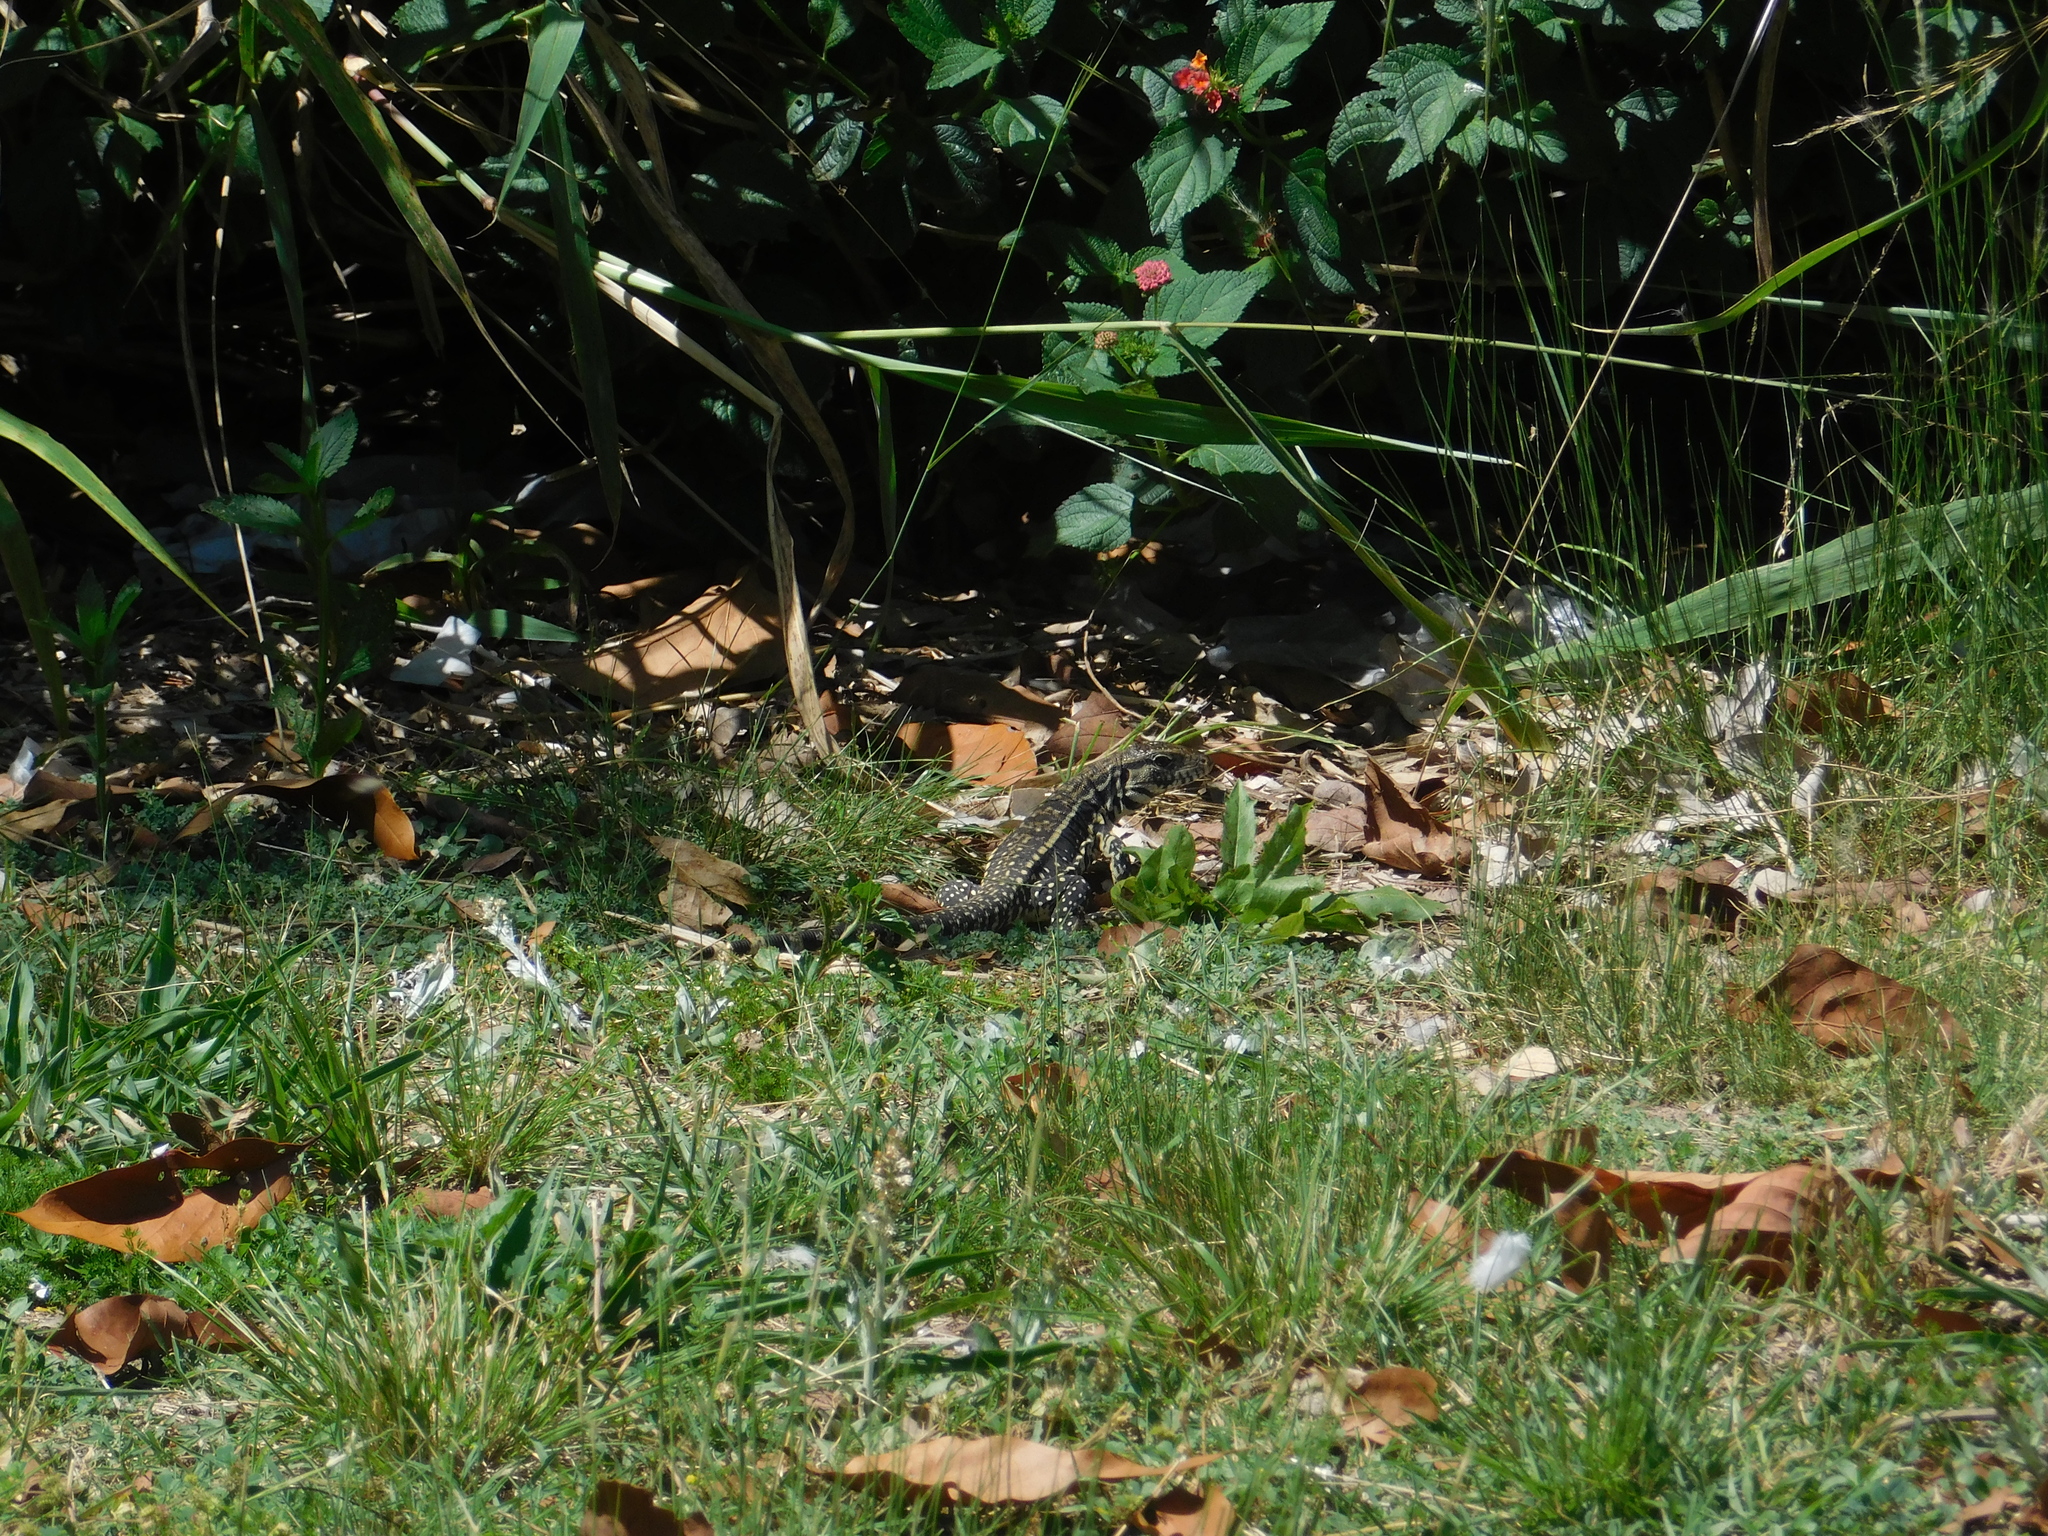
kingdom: Animalia
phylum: Chordata
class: Squamata
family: Teiidae
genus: Salvator
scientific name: Salvator merianae
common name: Argentine black and white tegu
